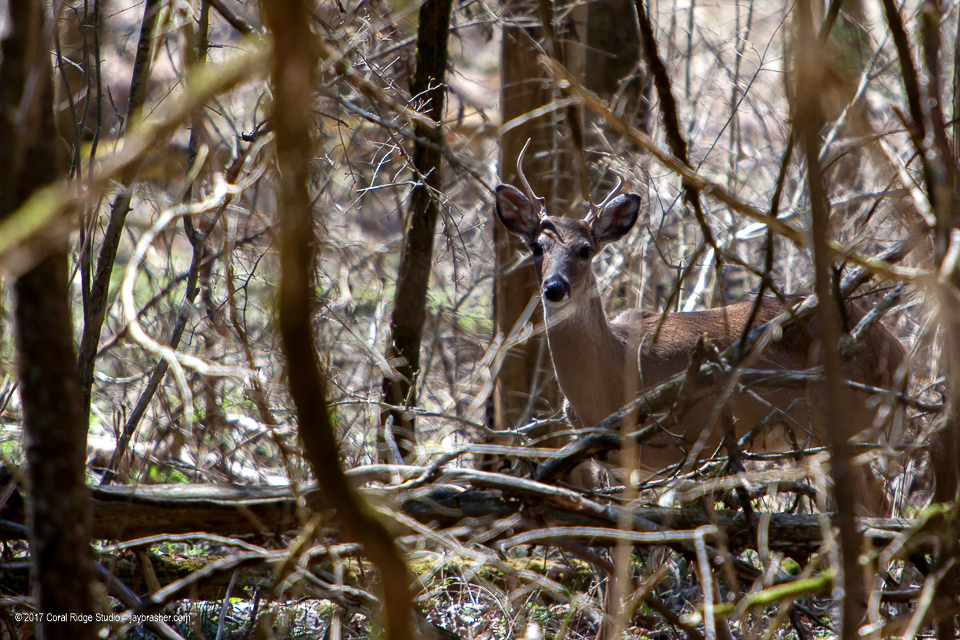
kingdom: Animalia
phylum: Chordata
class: Mammalia
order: Artiodactyla
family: Cervidae
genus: Odocoileus
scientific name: Odocoileus virginianus
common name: White-tailed deer
